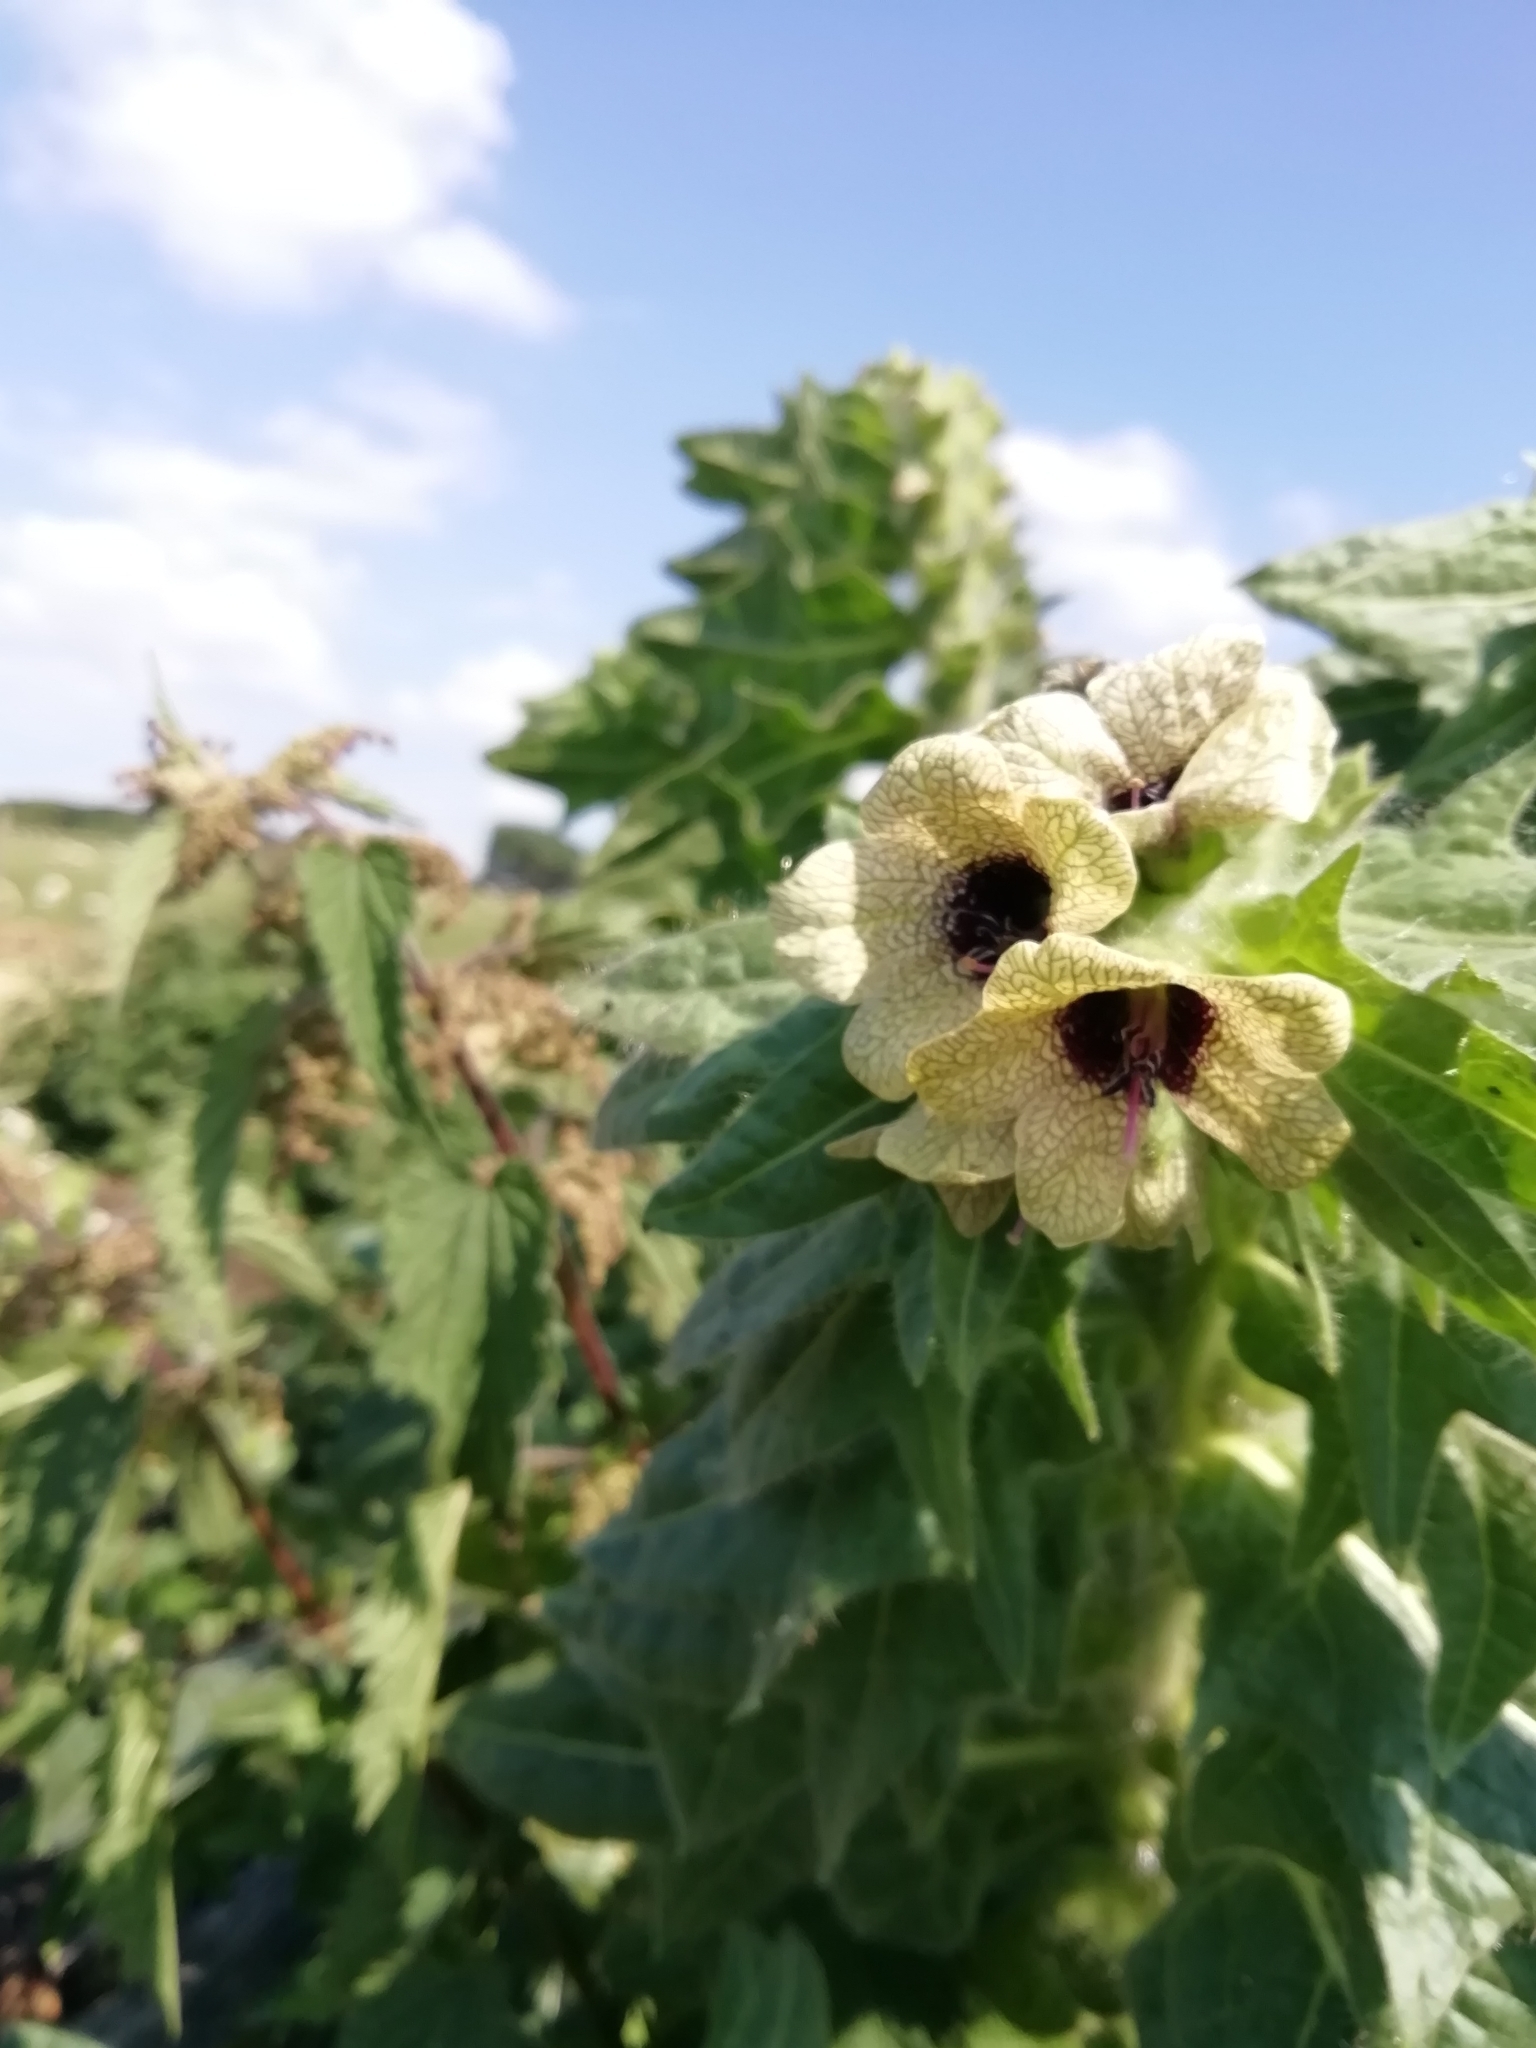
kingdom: Plantae
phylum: Tracheophyta
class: Magnoliopsida
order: Solanales
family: Solanaceae
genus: Hyoscyamus
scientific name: Hyoscyamus niger
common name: Henbane
